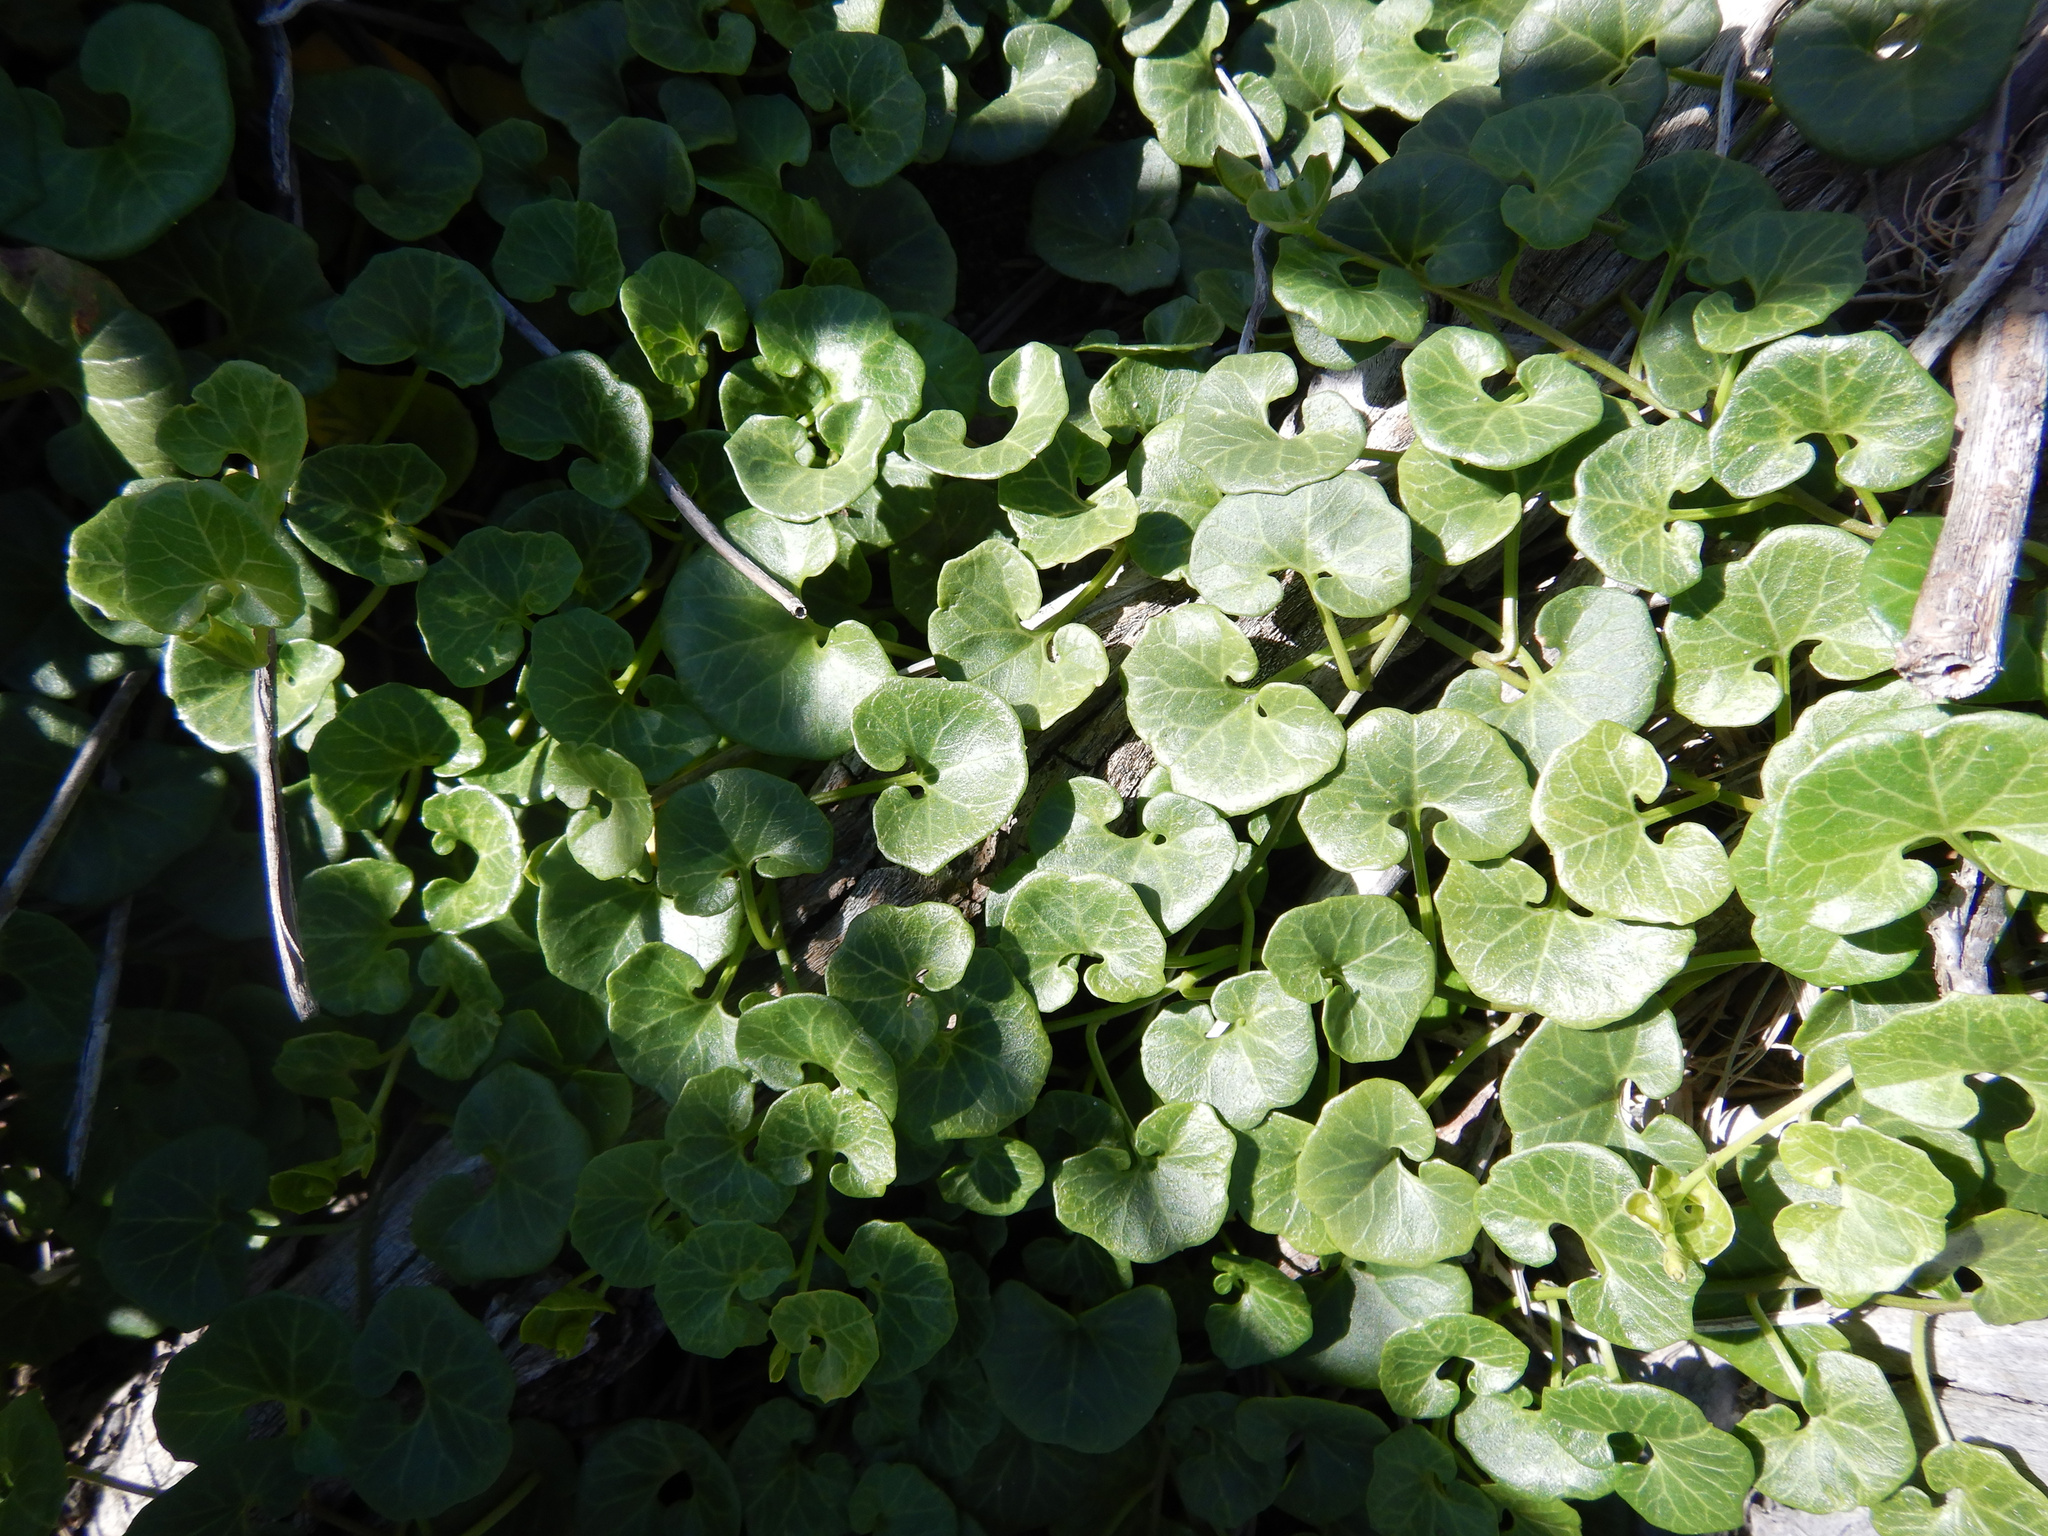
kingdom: Plantae
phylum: Tracheophyta
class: Magnoliopsida
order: Solanales
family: Convolvulaceae
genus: Calystegia
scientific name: Calystegia soldanella
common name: Sea bindweed
